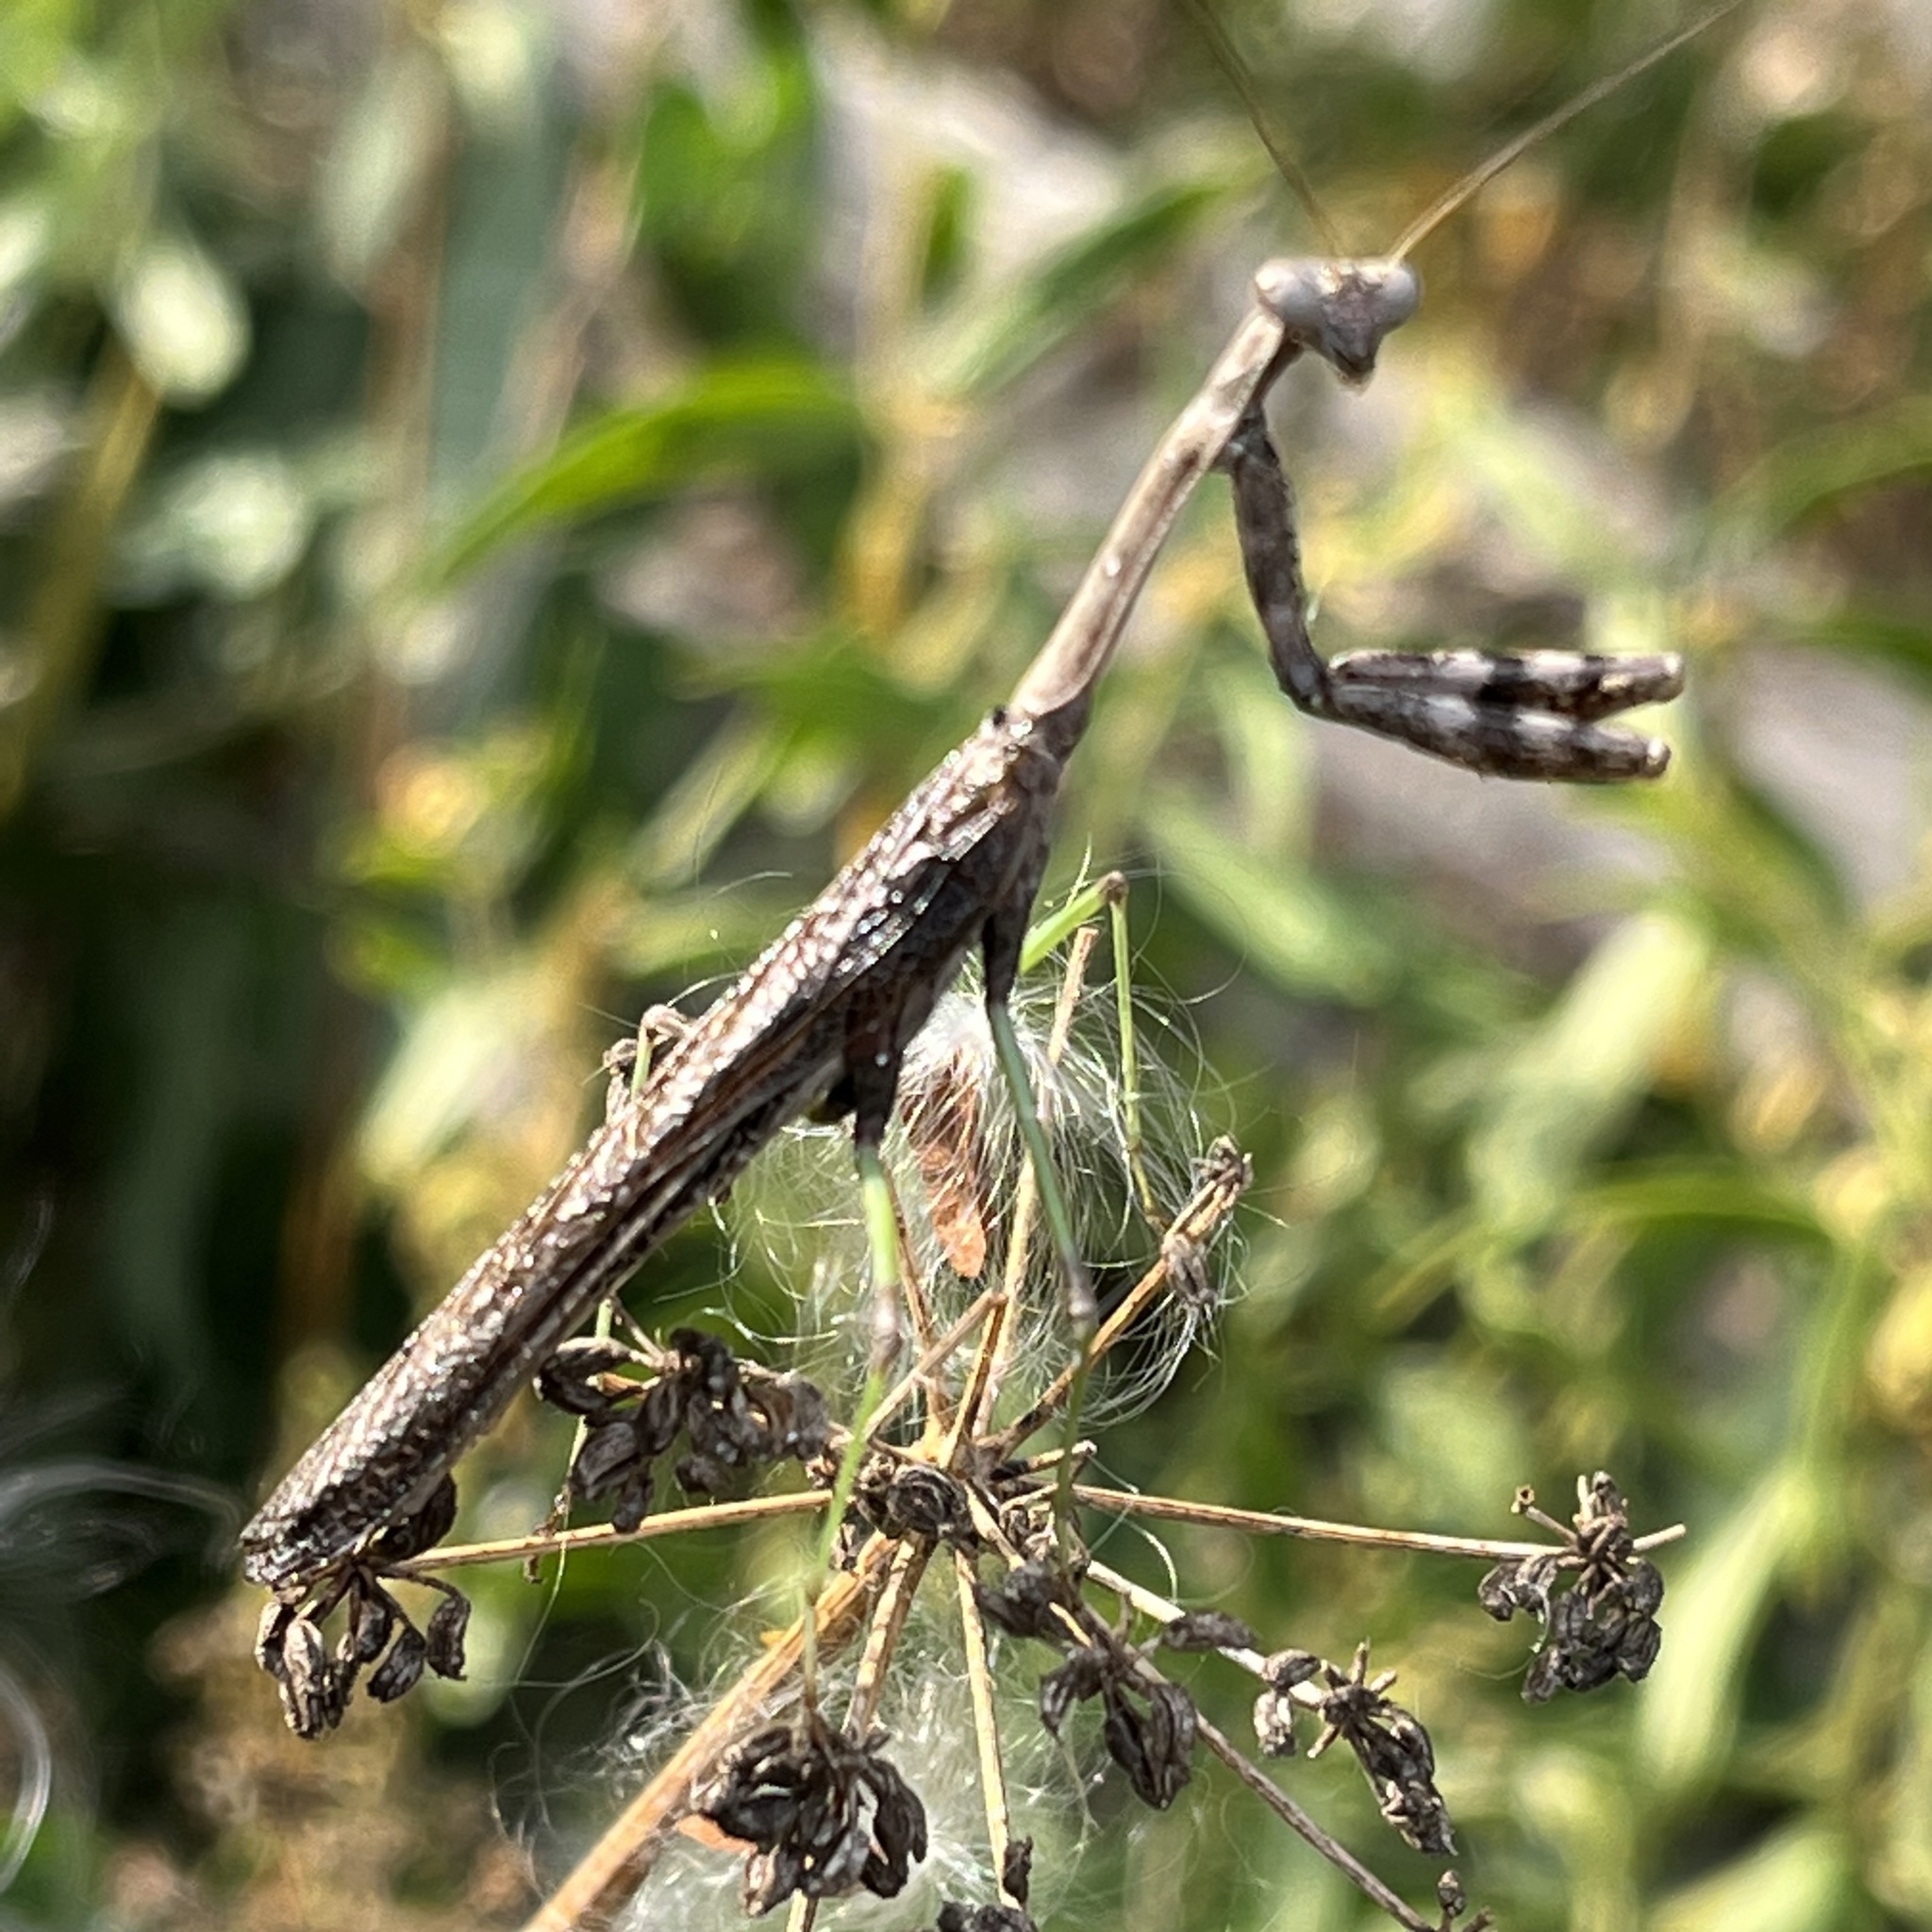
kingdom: Animalia
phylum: Arthropoda
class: Insecta
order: Mantodea
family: Mantidae
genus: Stagmomantis
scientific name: Stagmomantis carolina
